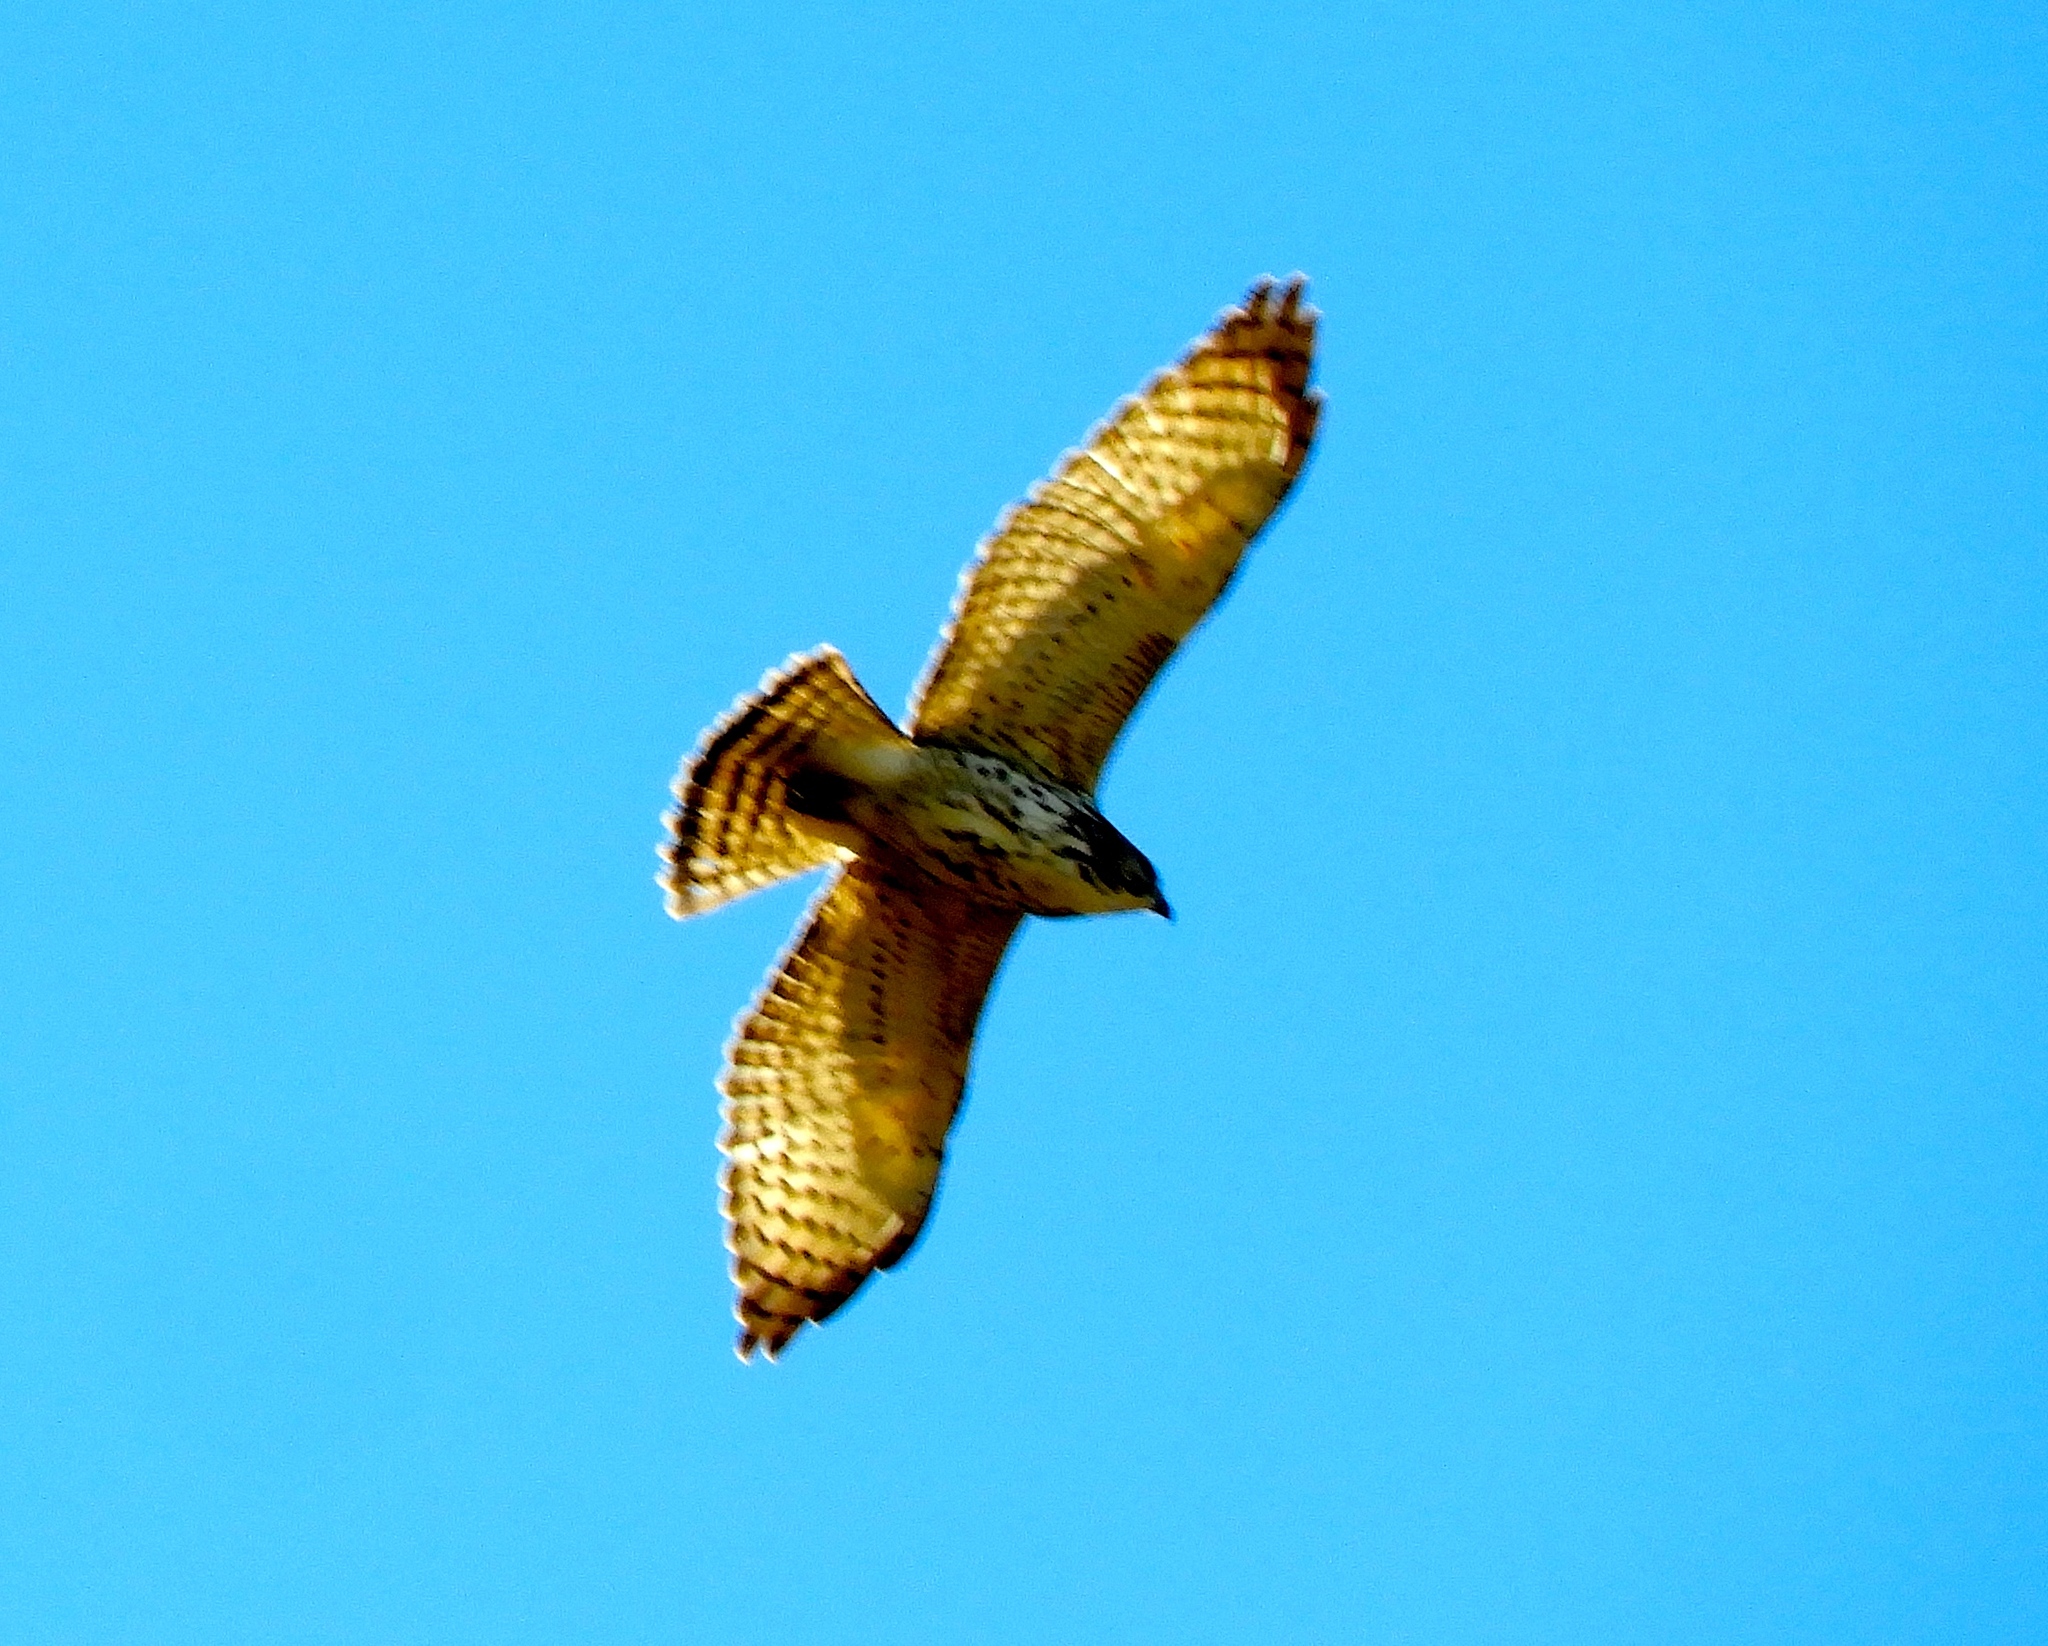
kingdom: Animalia
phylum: Chordata
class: Aves
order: Accipitriformes
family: Accipitridae
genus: Buteo
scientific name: Buteo platypterus
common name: Broad-winged hawk
